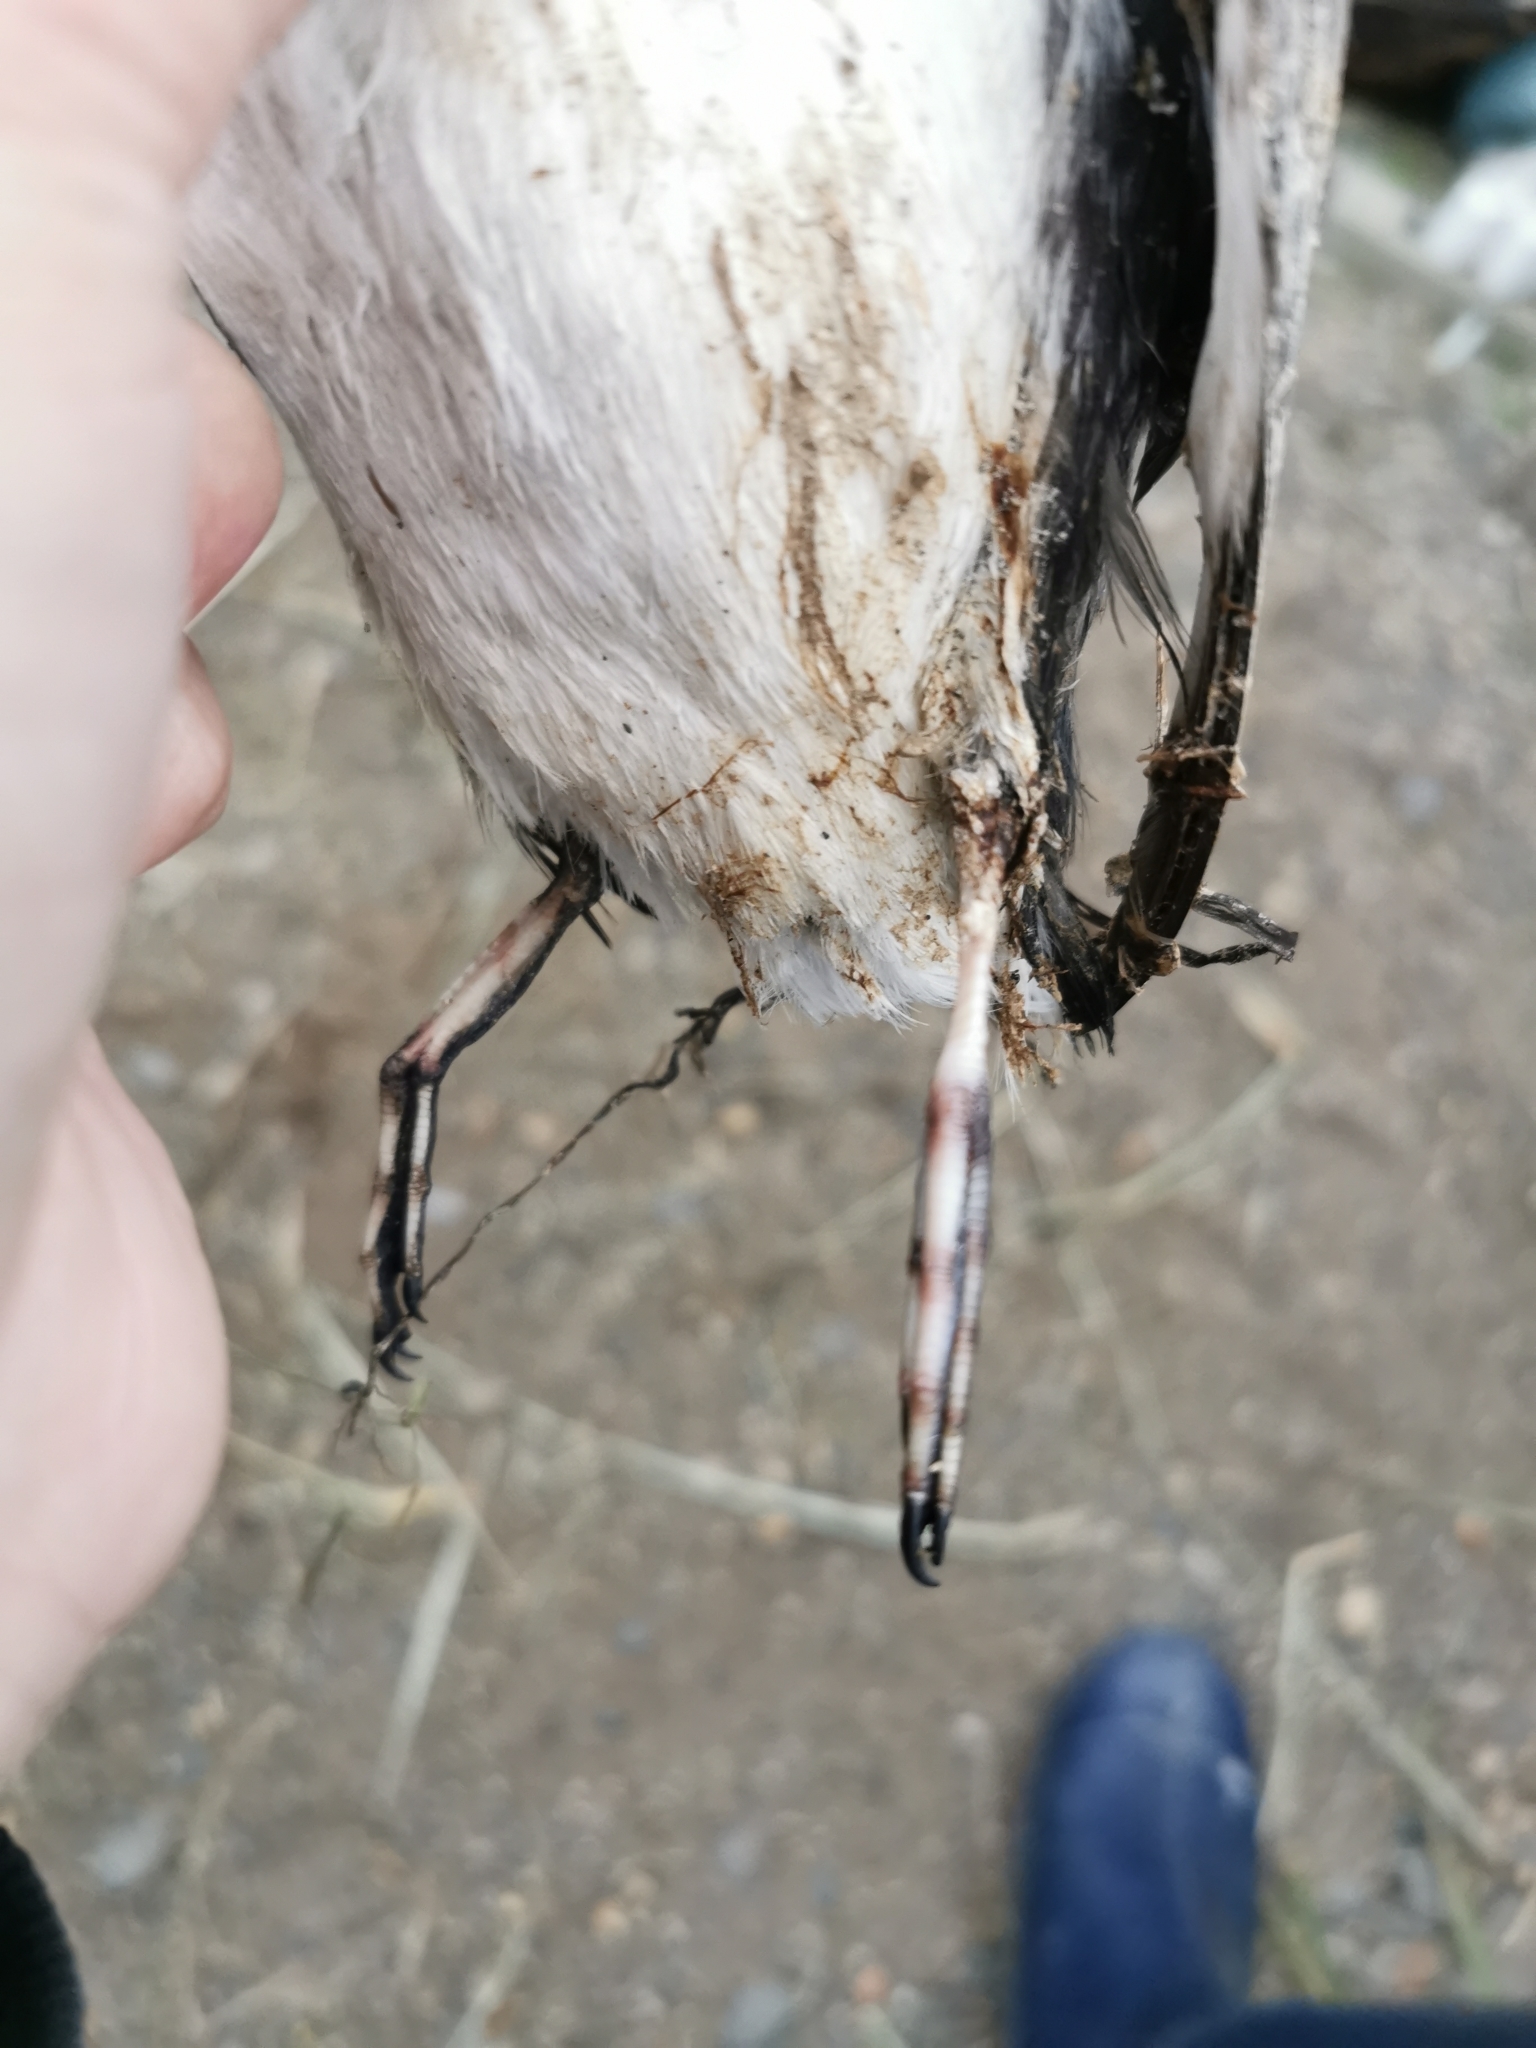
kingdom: Animalia
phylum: Chordata
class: Aves
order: Charadriiformes
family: Alcidae
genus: Synthliboramphus
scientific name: Synthliboramphus antiquus
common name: Ancient murrelet
